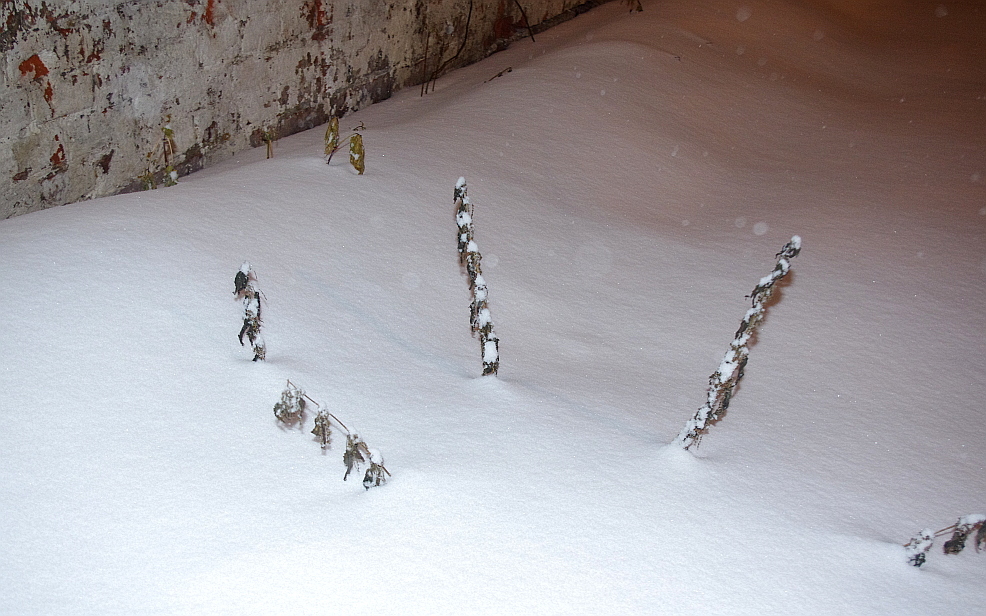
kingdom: Plantae
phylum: Tracheophyta
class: Magnoliopsida
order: Rosales
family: Urticaceae
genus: Urtica
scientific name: Urtica dioica
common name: Common nettle
